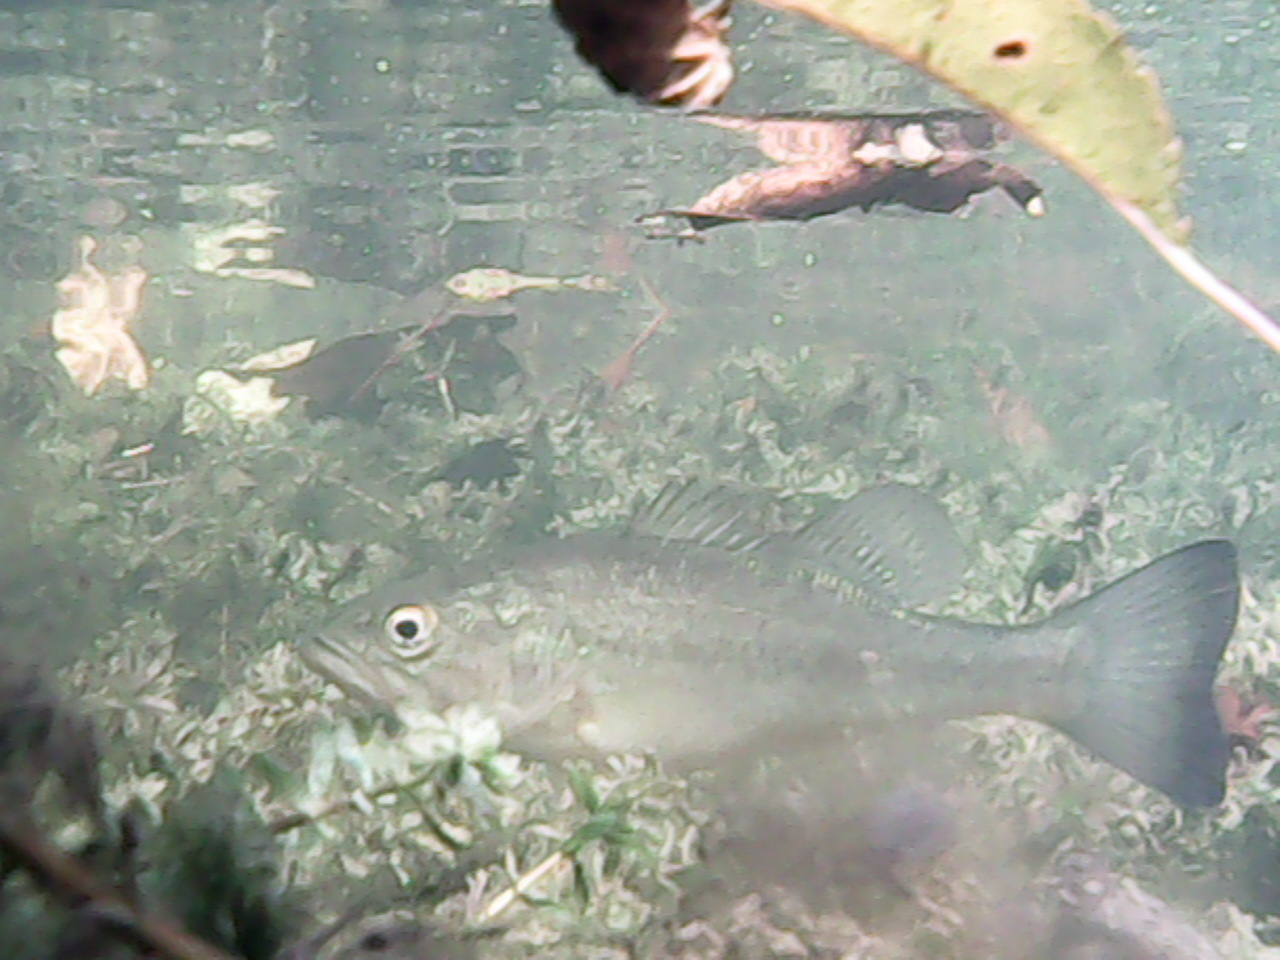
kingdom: Animalia
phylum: Chordata
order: Perciformes
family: Centrarchidae
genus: Micropterus
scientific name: Micropterus
